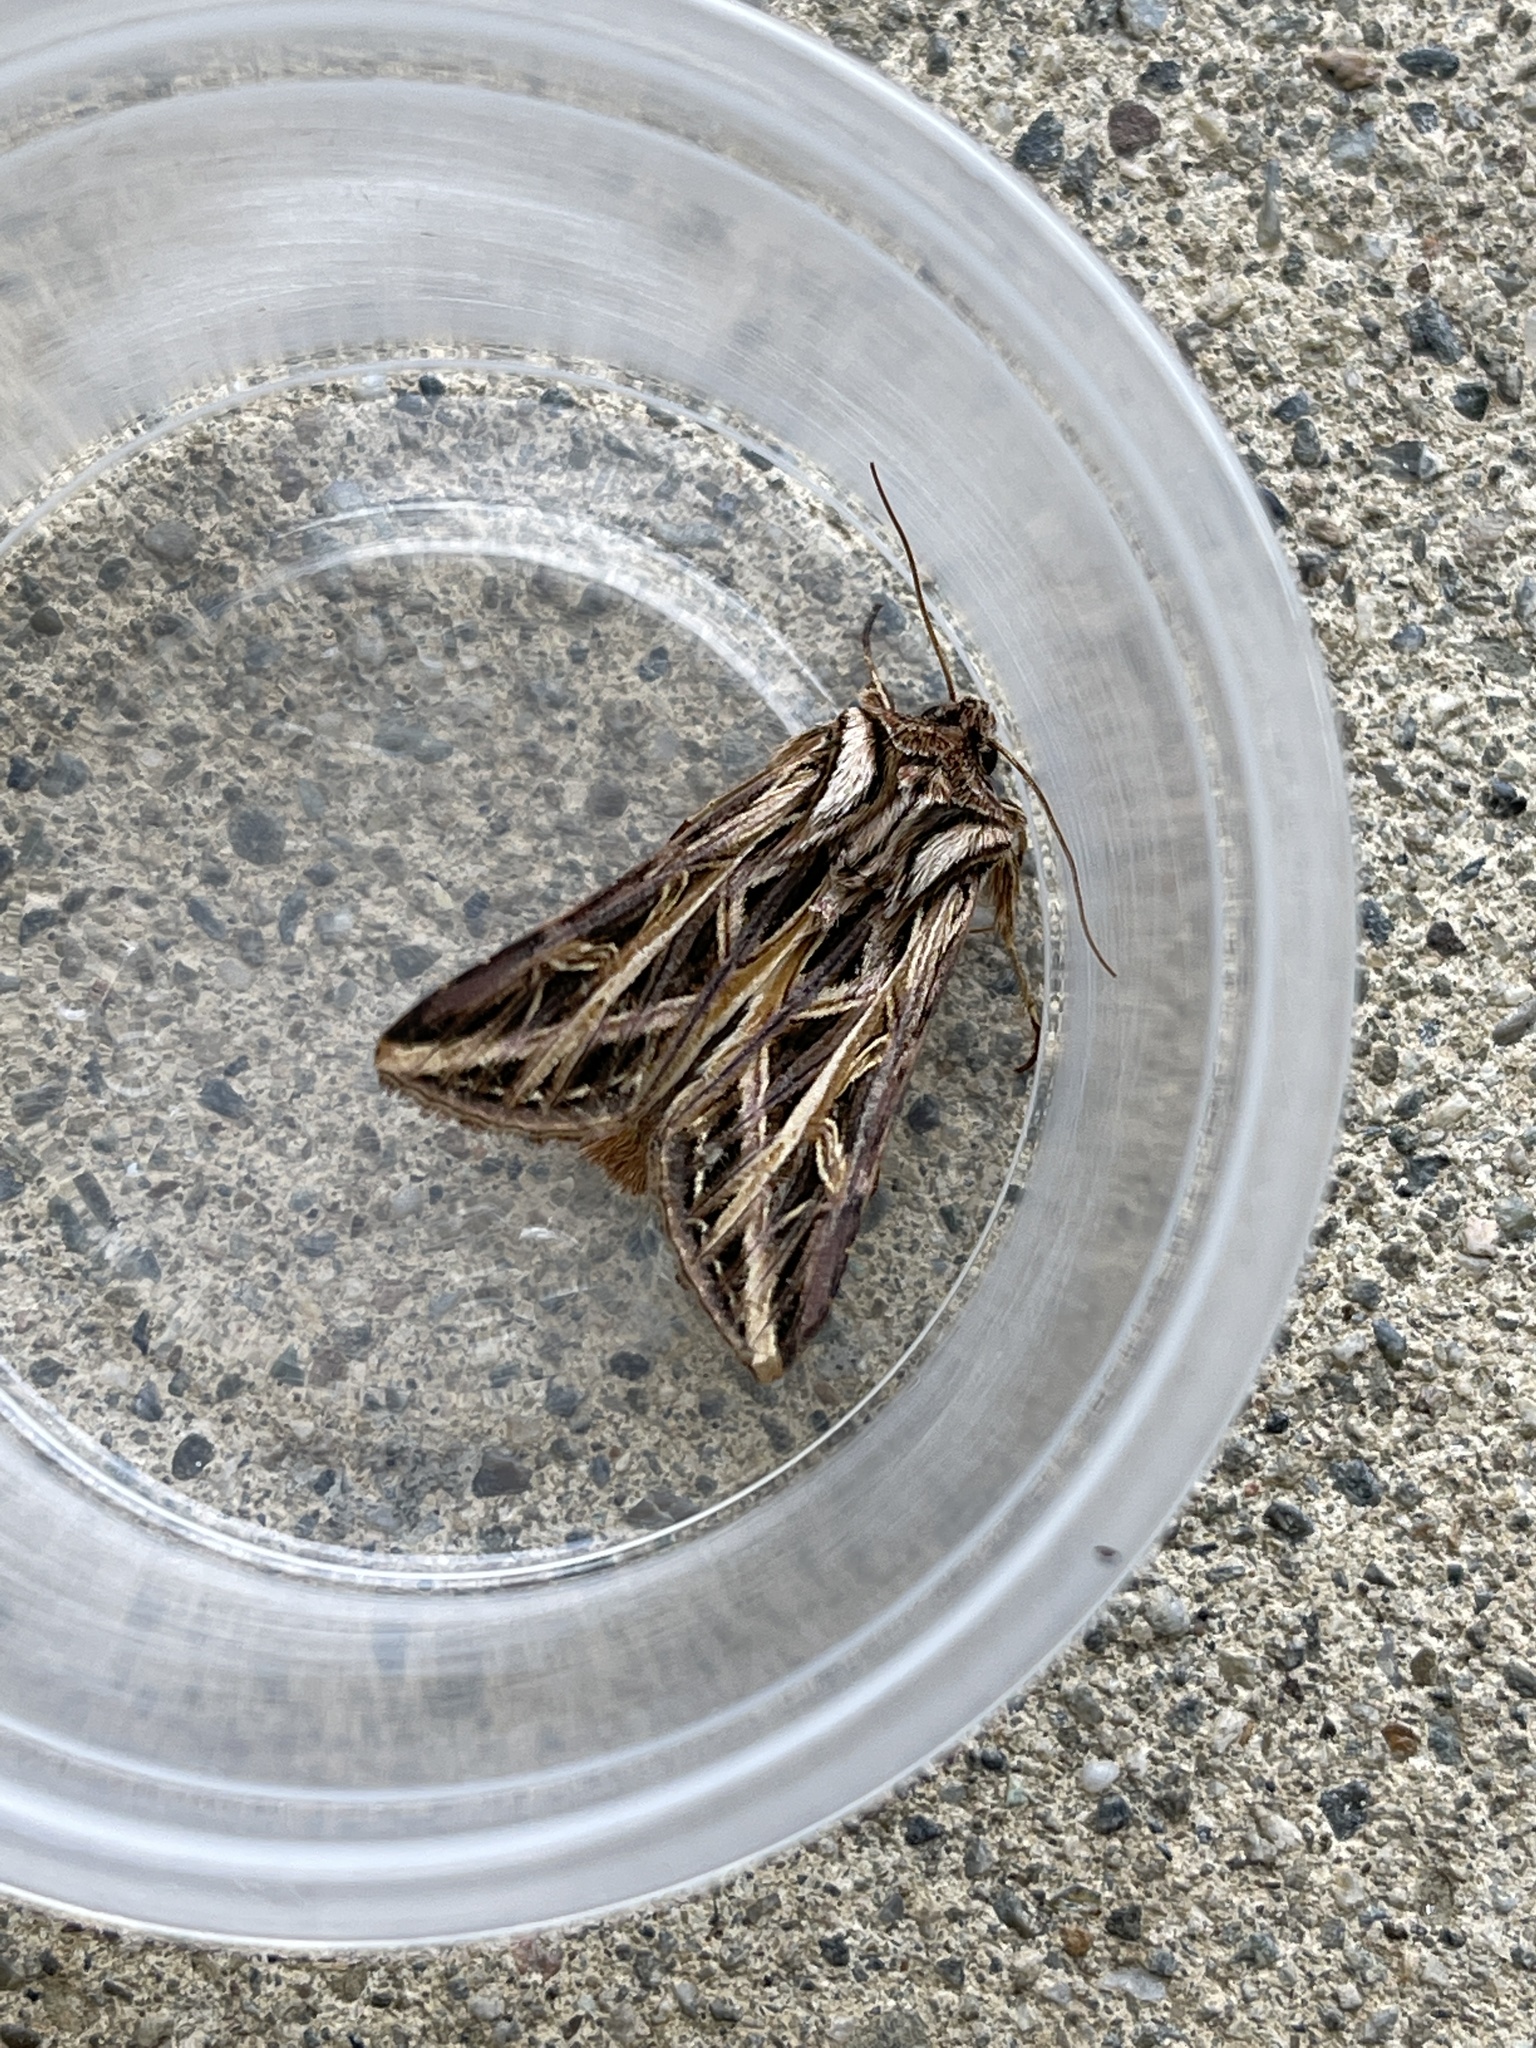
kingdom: Animalia
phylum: Arthropoda
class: Insecta
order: Lepidoptera
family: Noctuidae
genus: Dargida
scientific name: Dargida procinctus
